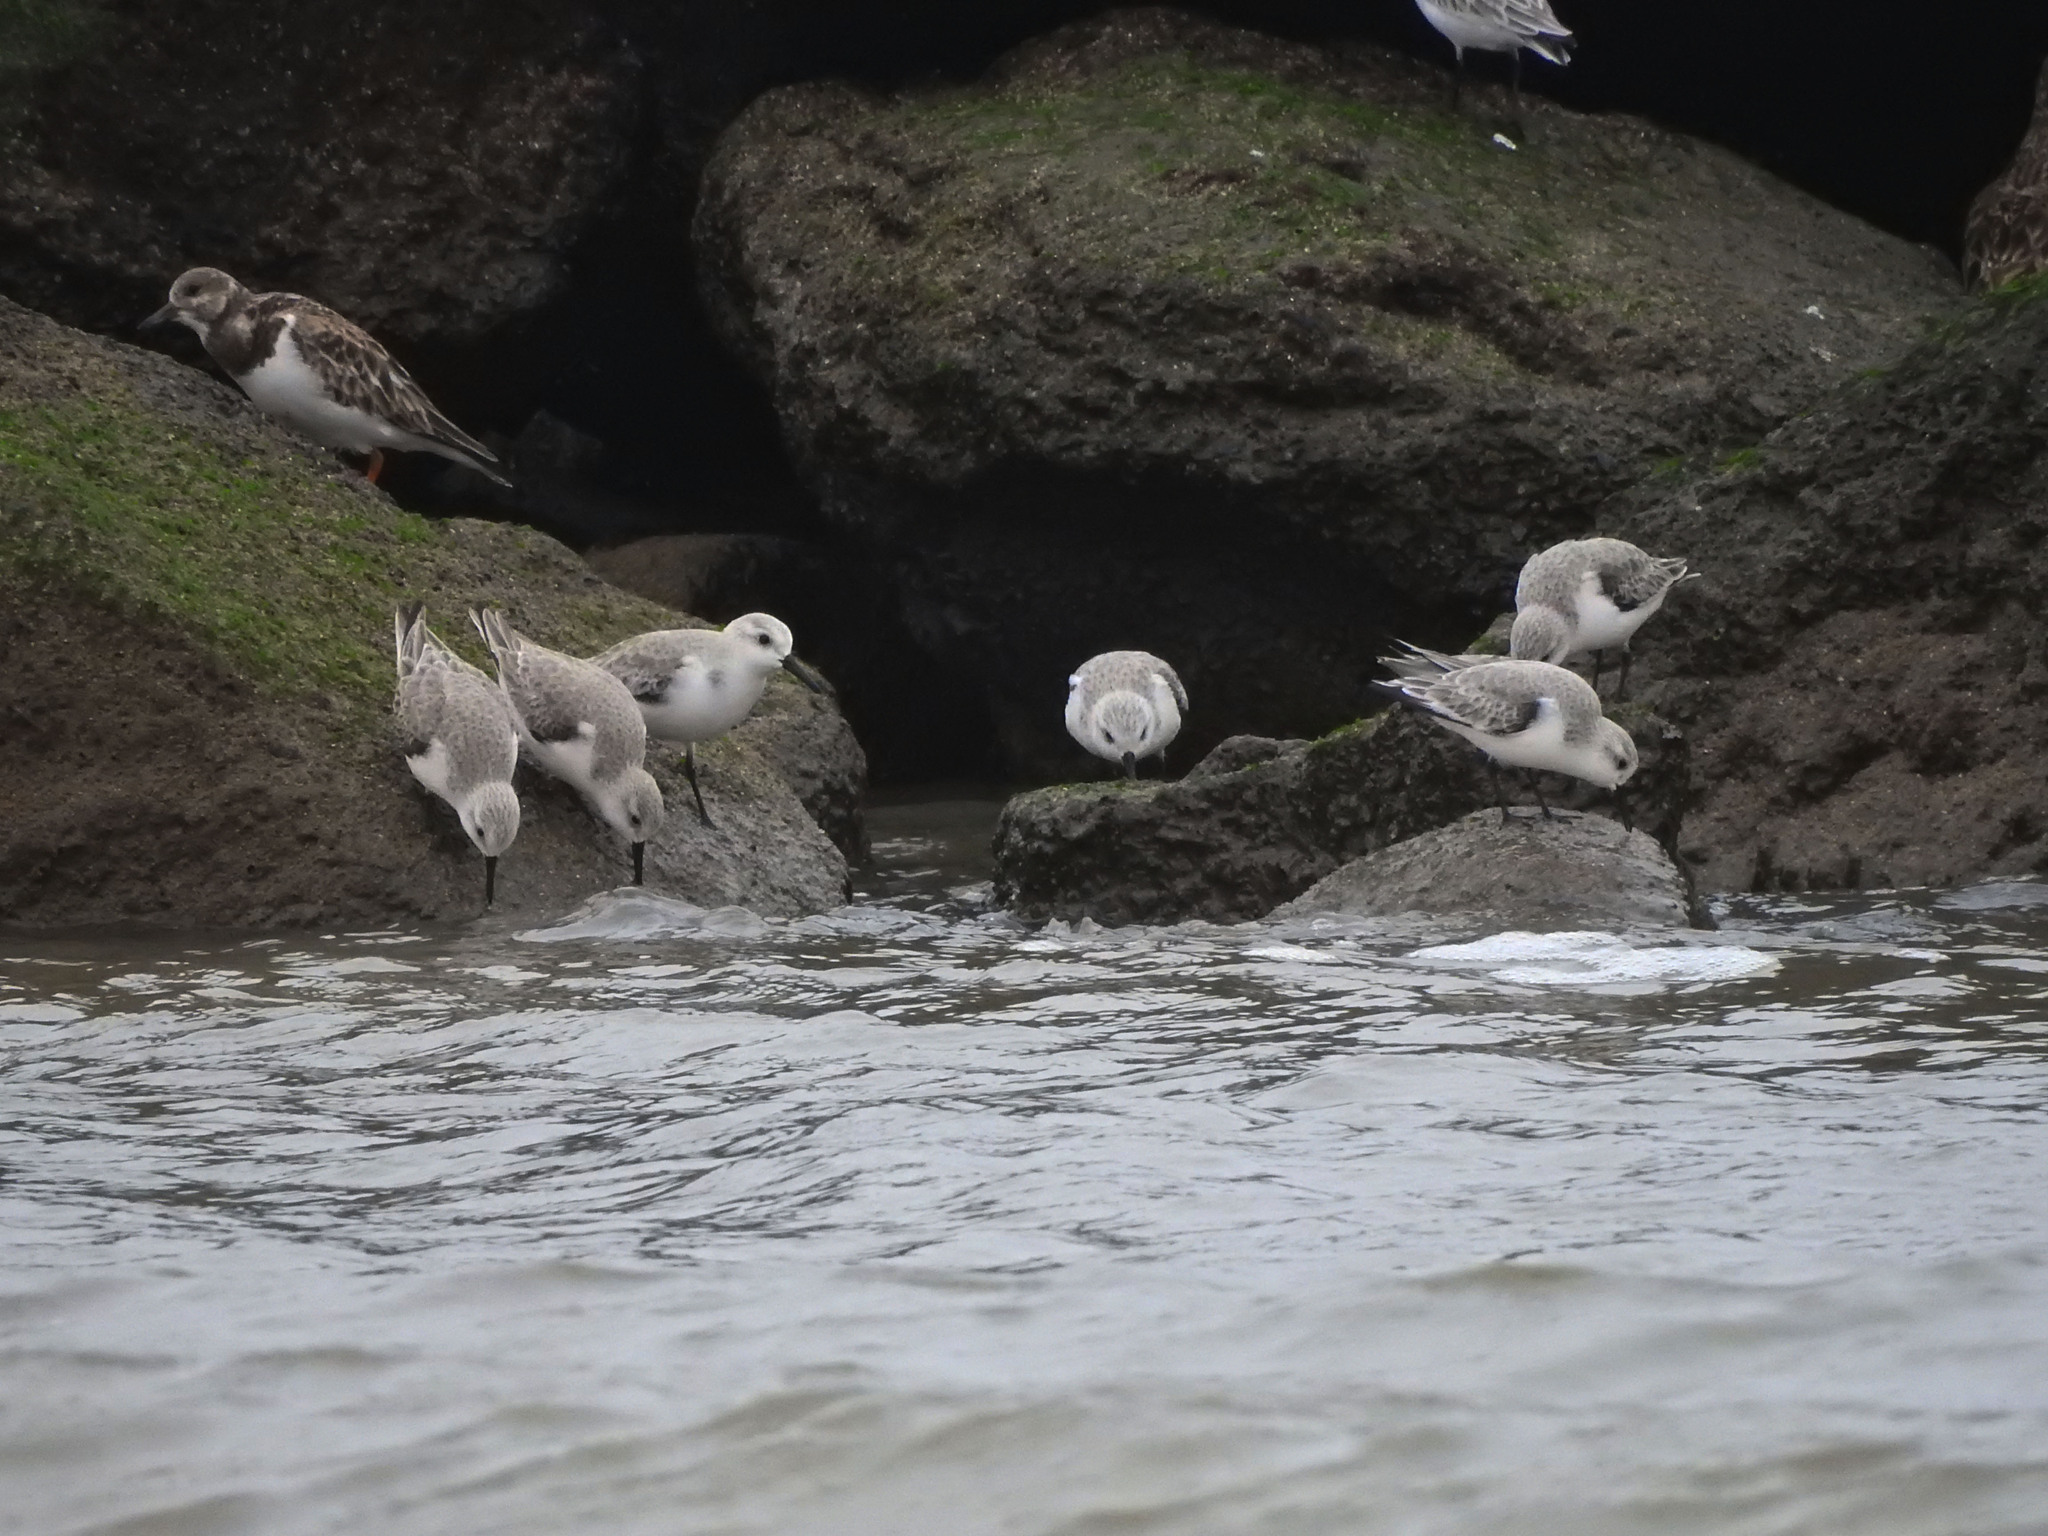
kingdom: Animalia
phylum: Chordata
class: Aves
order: Charadriiformes
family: Scolopacidae
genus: Calidris
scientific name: Calidris alba
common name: Sanderling
